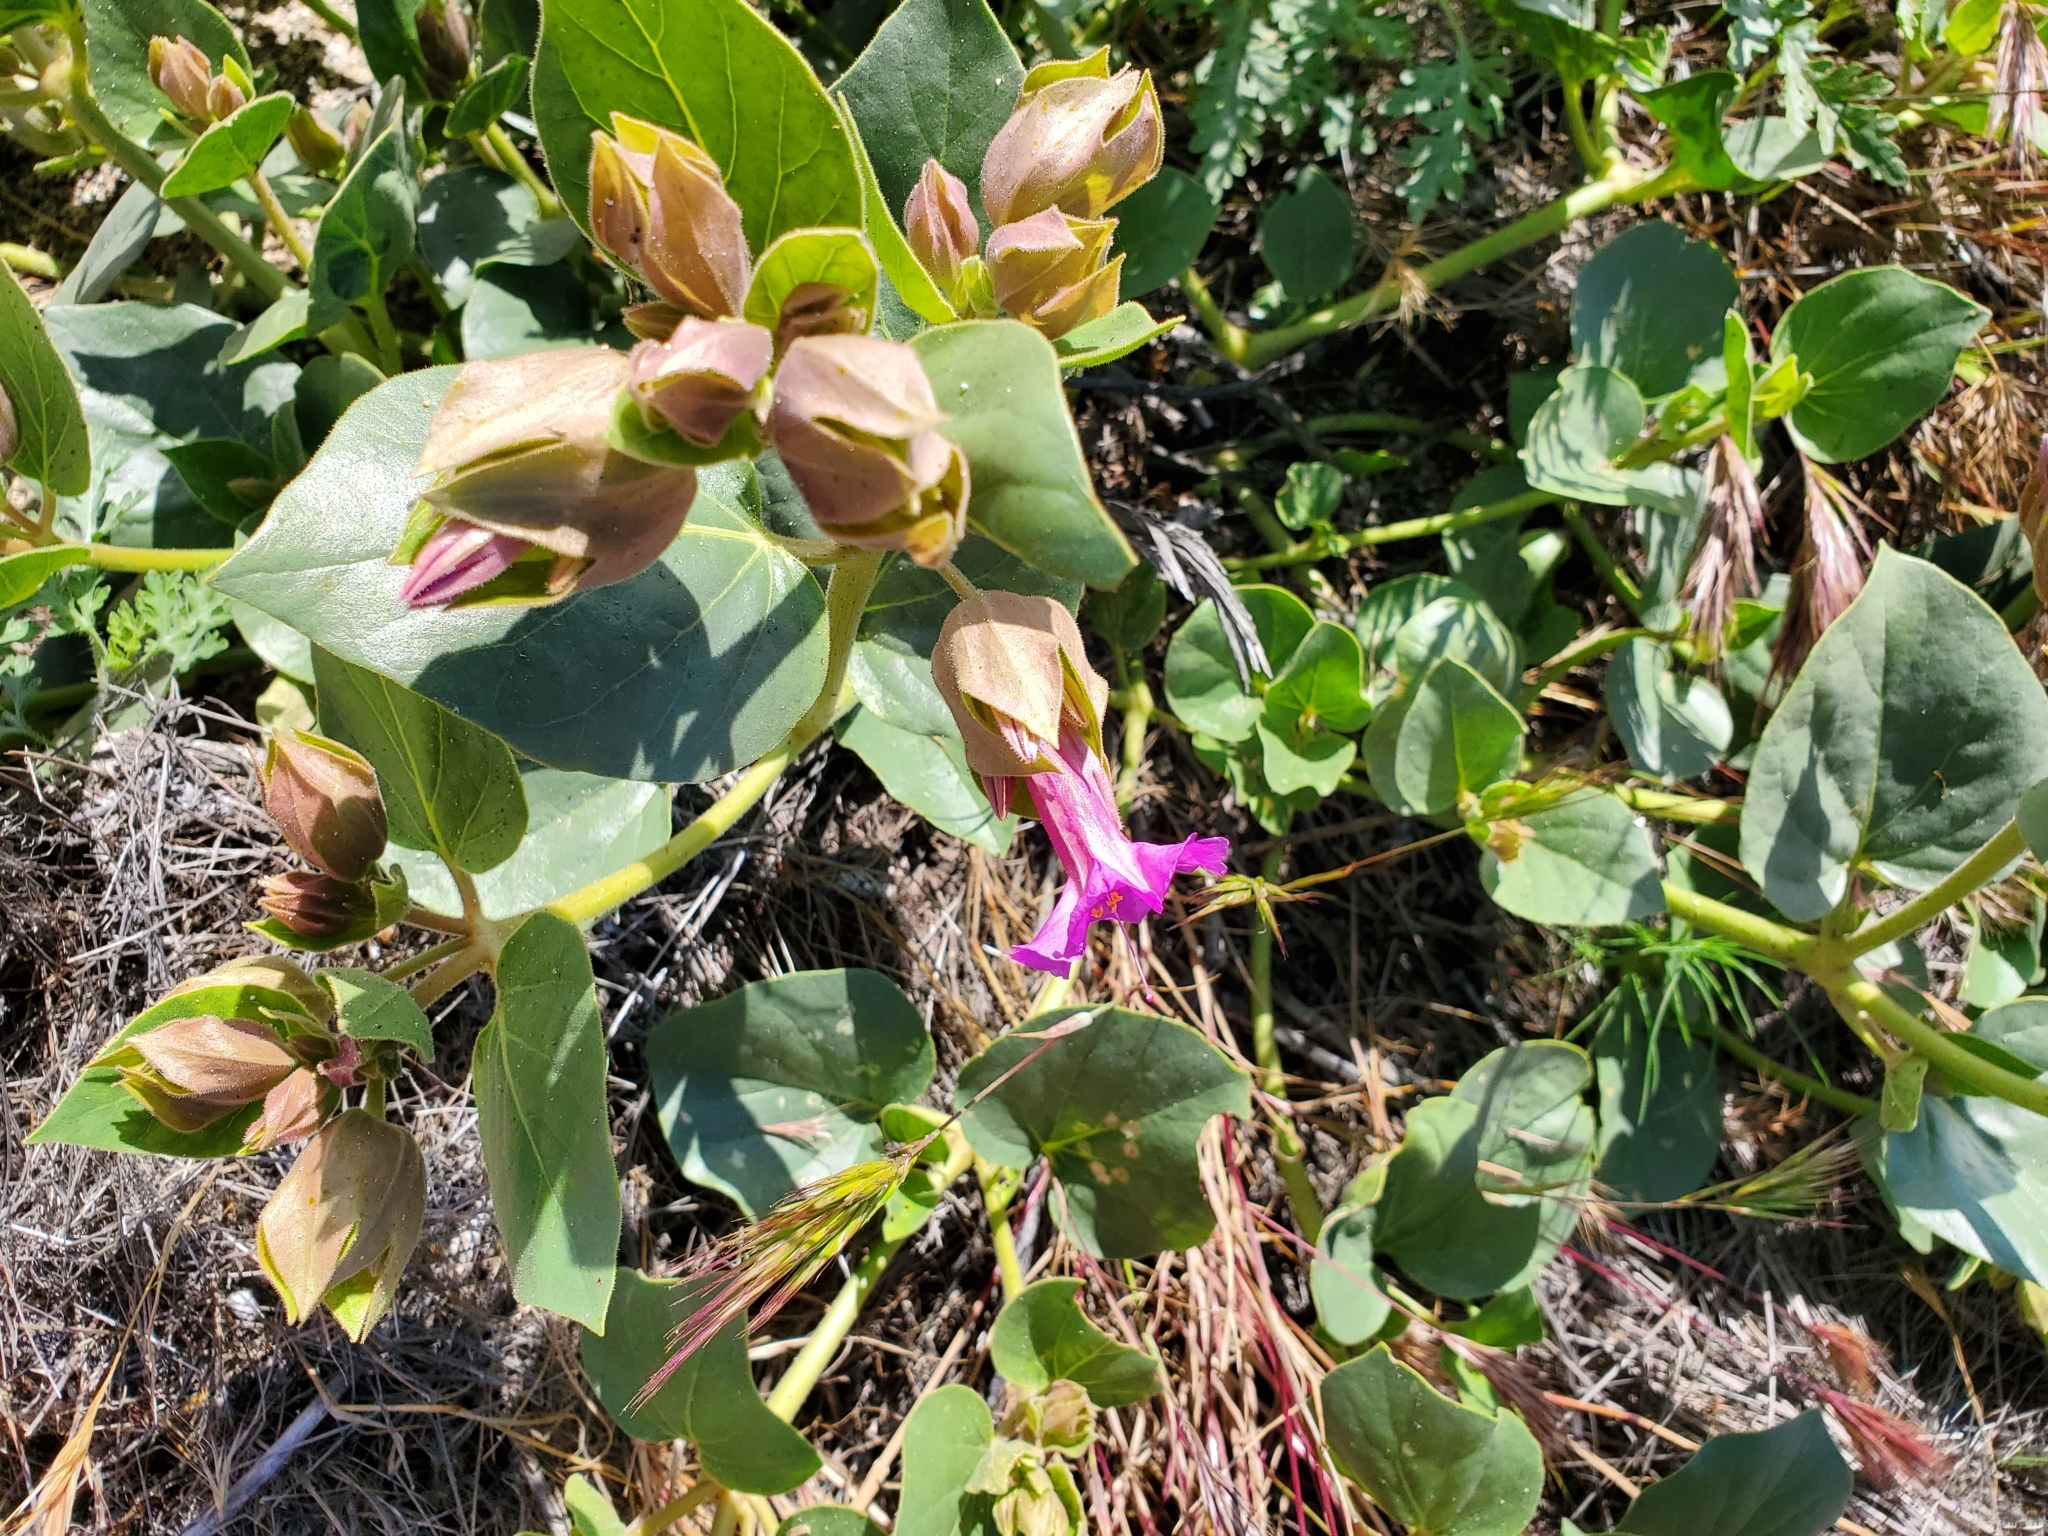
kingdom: Plantae
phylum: Tracheophyta
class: Magnoliopsida
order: Caryophyllales
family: Nyctaginaceae
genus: Mirabilis
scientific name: Mirabilis multiflora
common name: Froebel's four-o'clock
